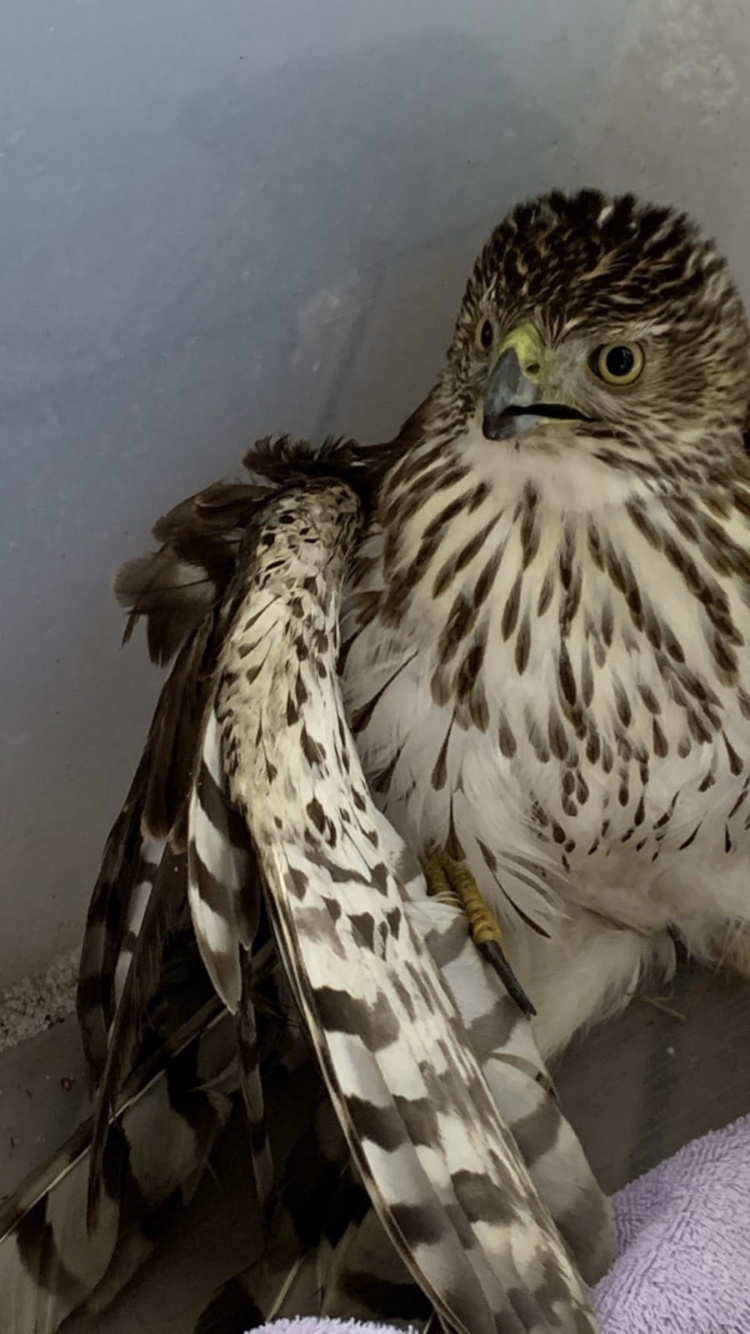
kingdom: Animalia
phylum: Chordata
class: Aves
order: Accipitriformes
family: Accipitridae
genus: Accipiter
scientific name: Accipiter cooperii
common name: Cooper's hawk
